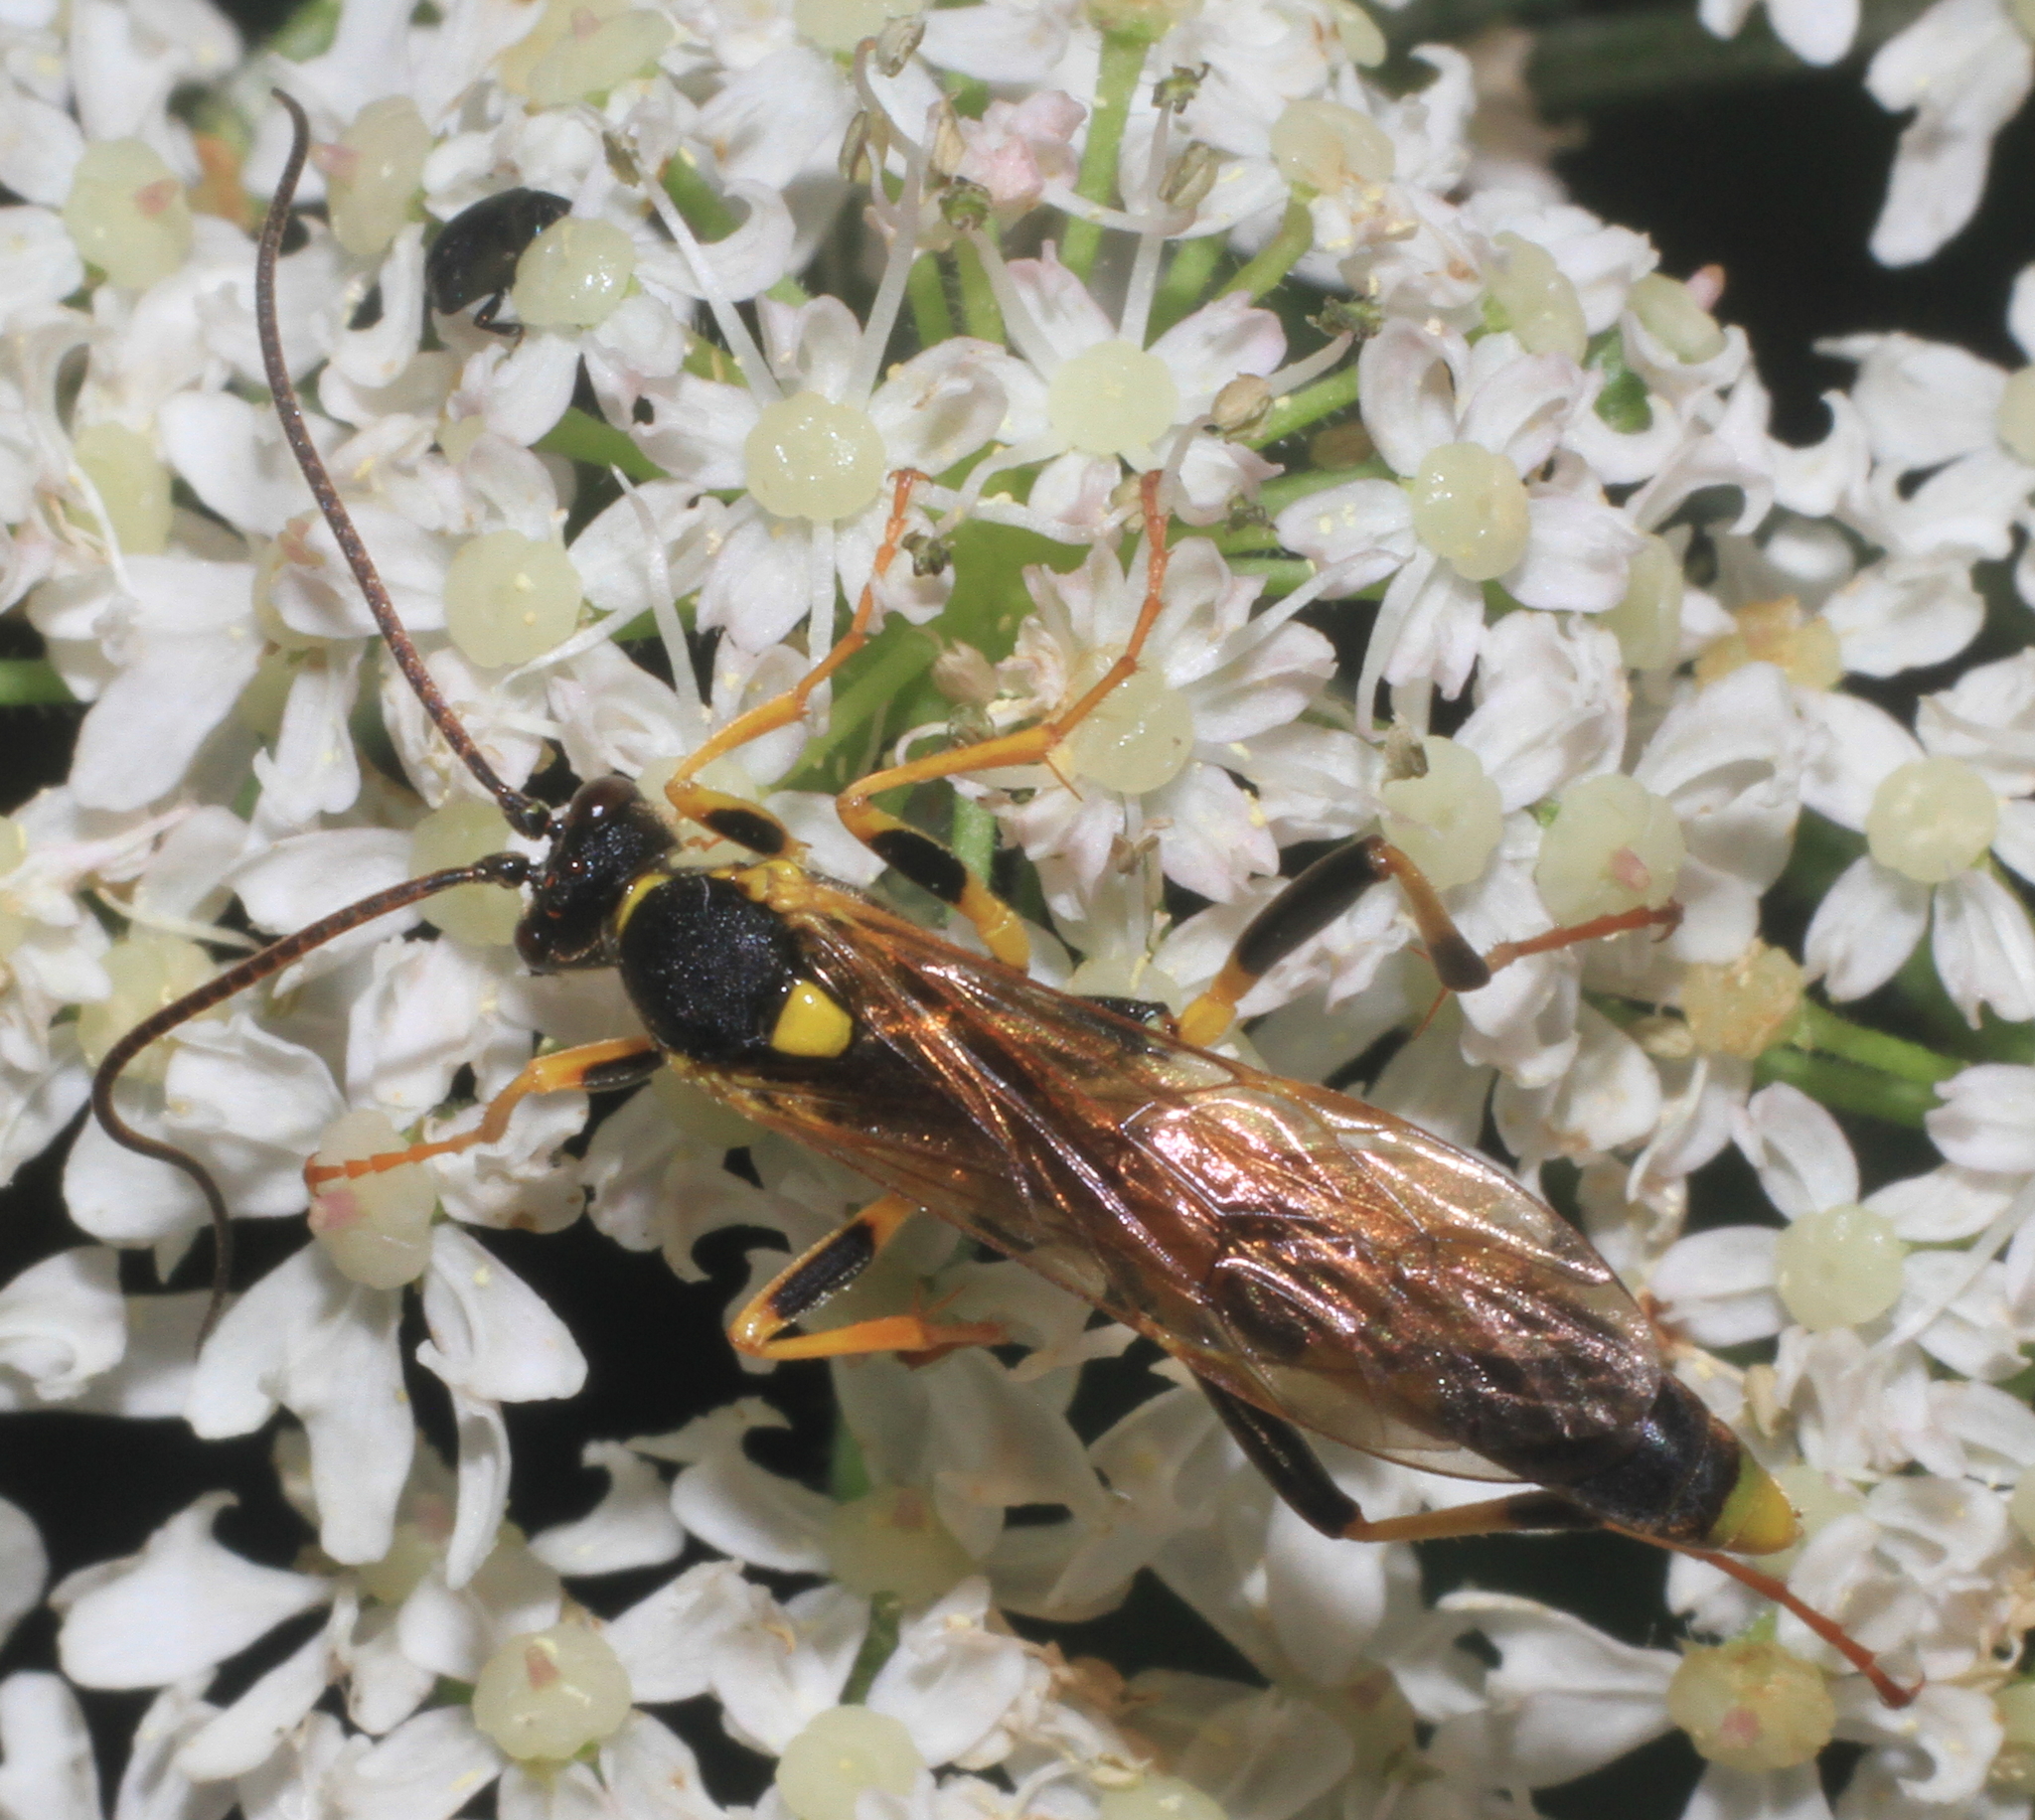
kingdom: Animalia
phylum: Arthropoda
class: Insecta
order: Hymenoptera
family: Ichneumonidae
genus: Amblyteles
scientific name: Amblyteles armatorius
